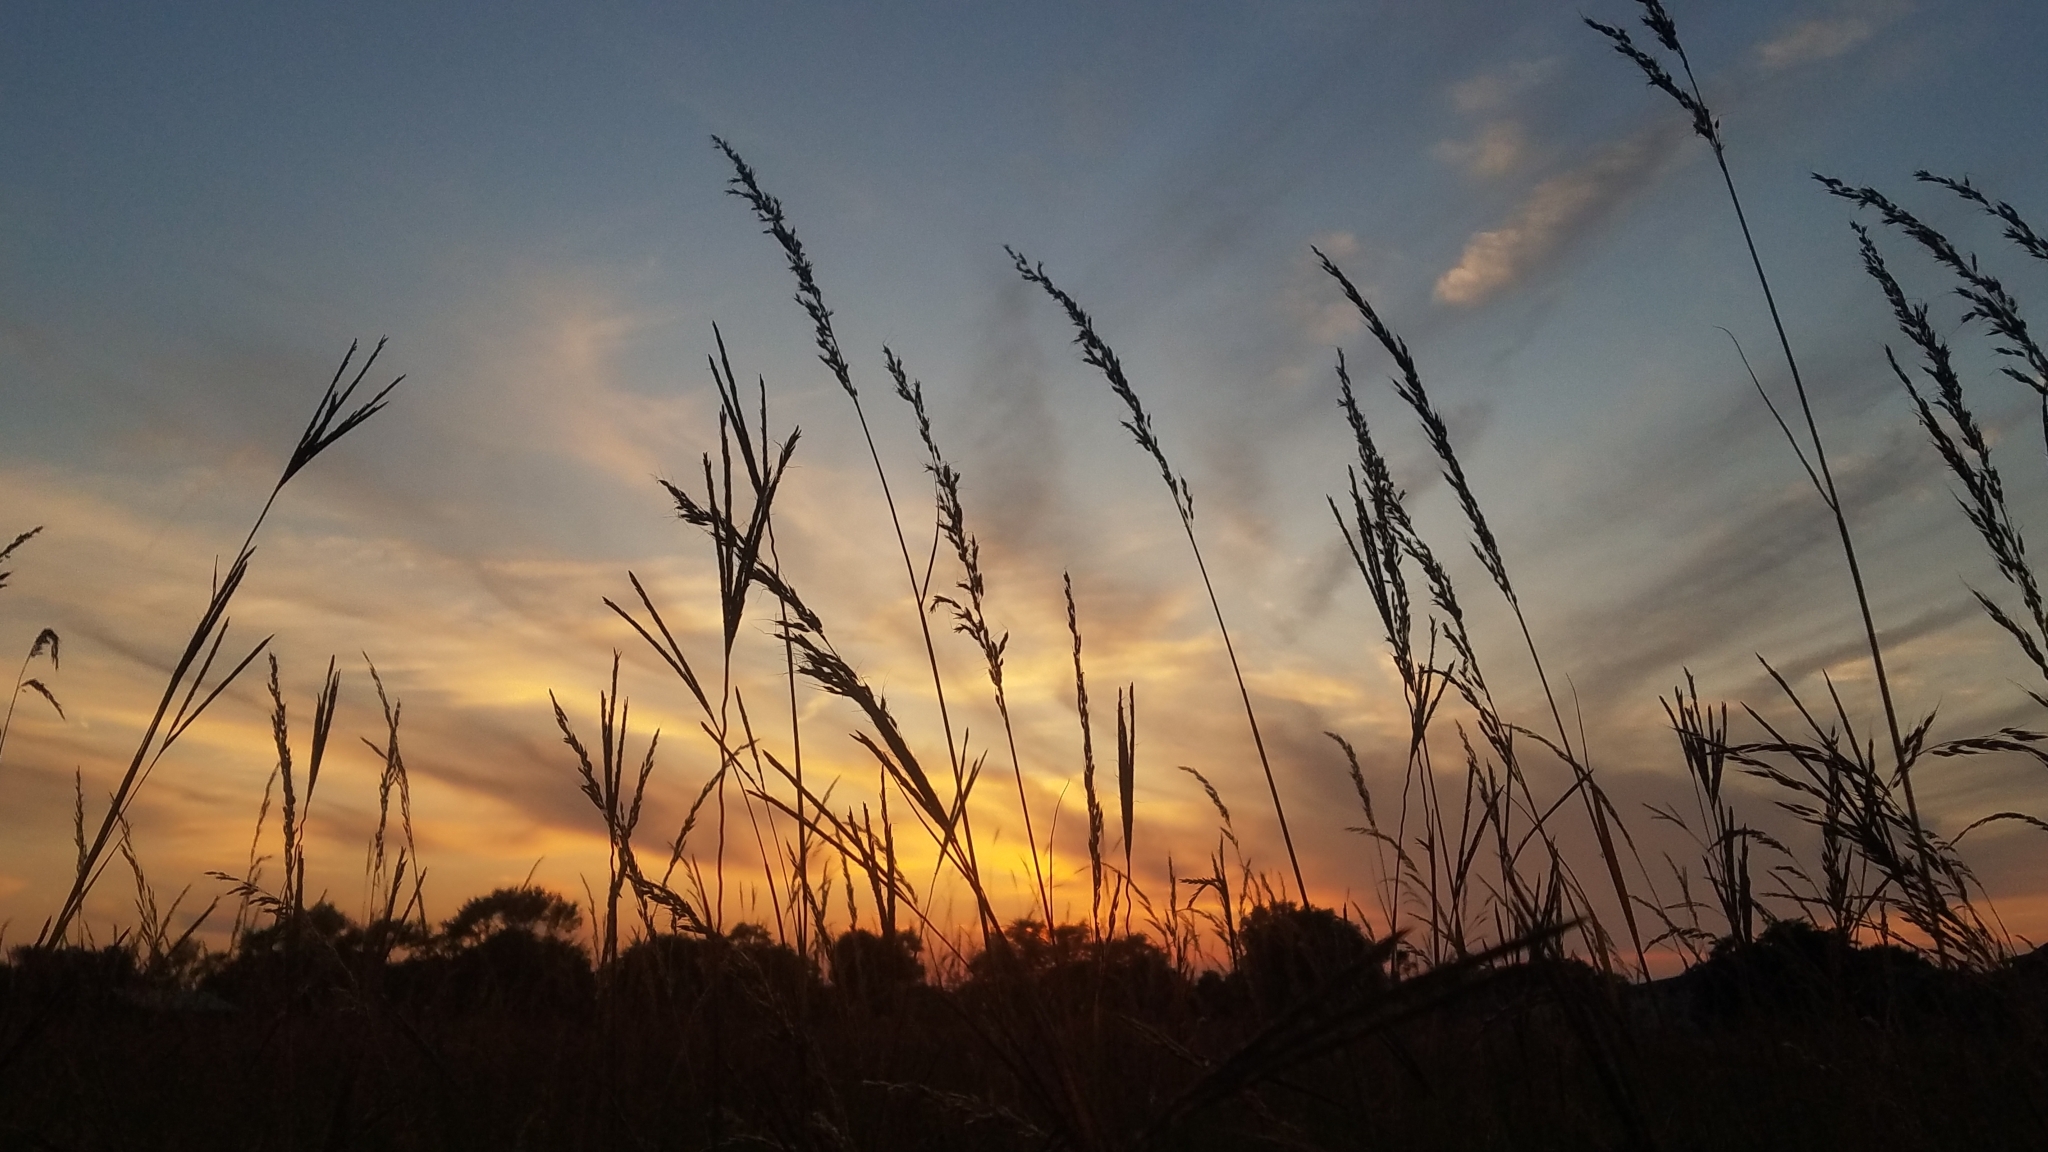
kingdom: Plantae
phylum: Tracheophyta
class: Liliopsida
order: Poales
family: Poaceae
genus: Sorghastrum
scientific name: Sorghastrum nutans
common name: Indian grass
